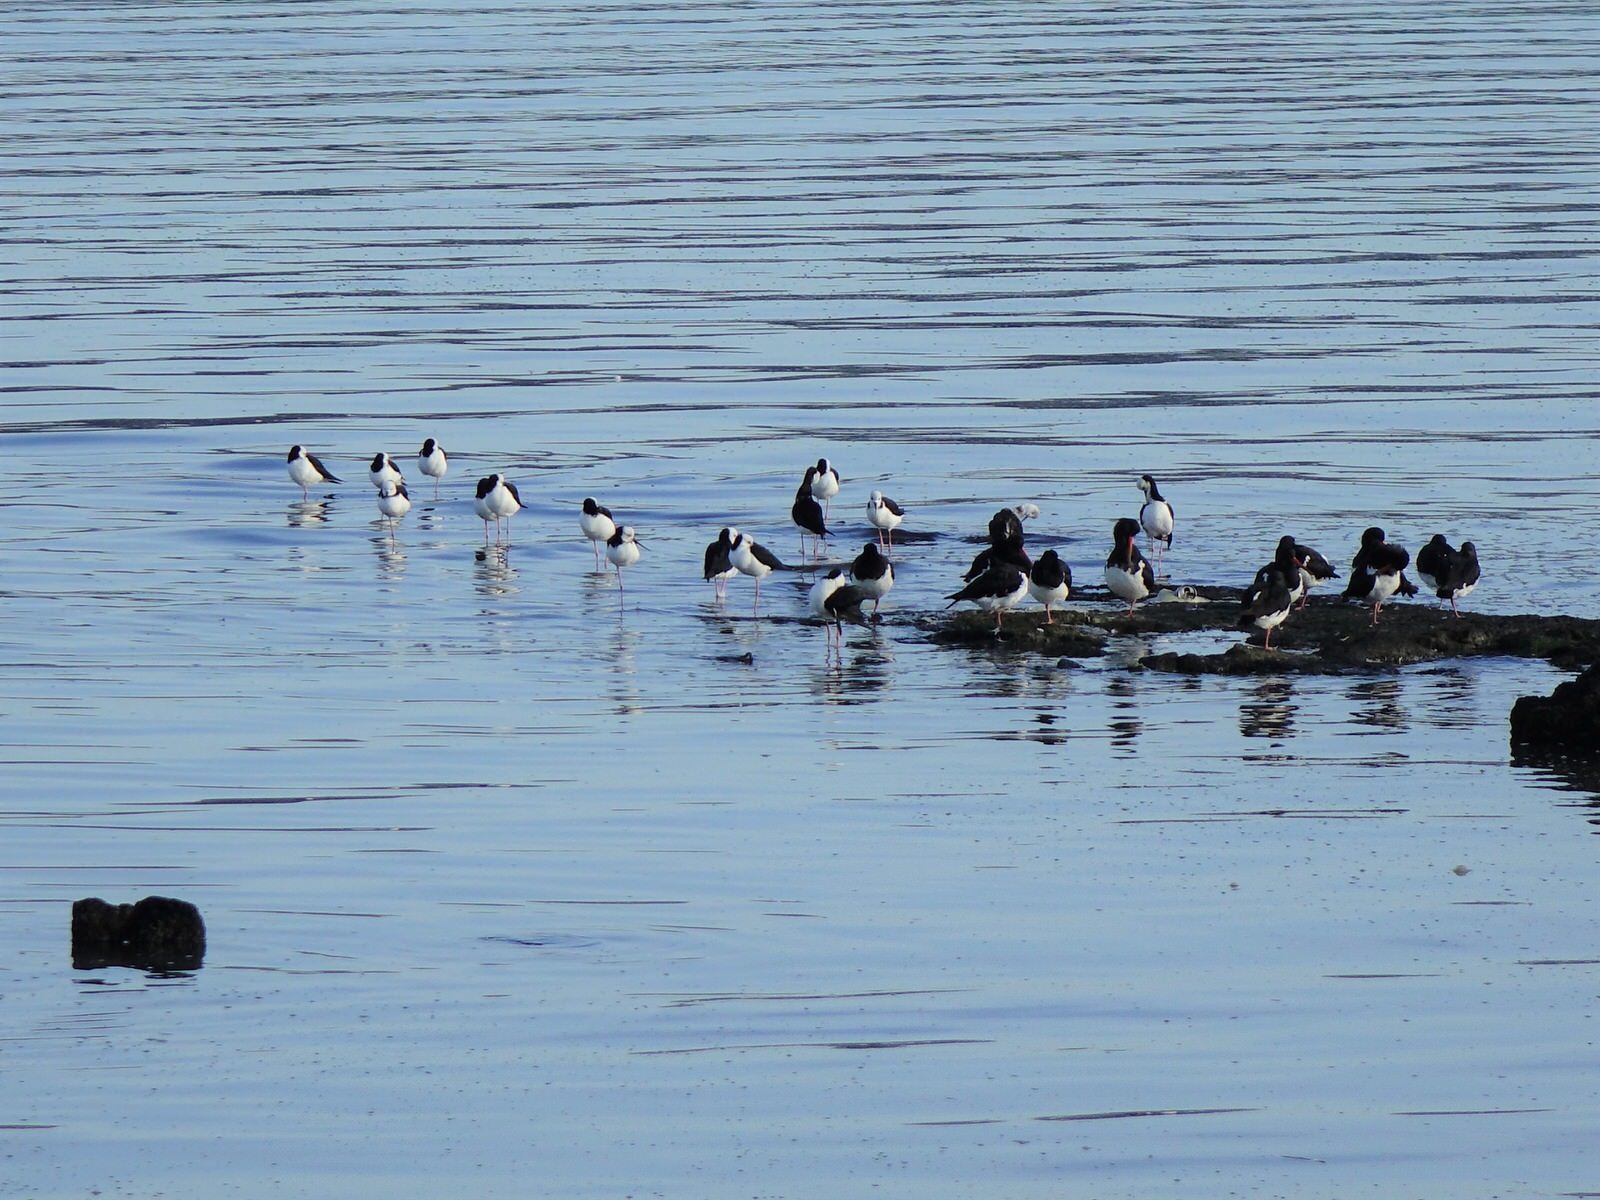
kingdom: Animalia
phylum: Chordata
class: Aves
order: Charadriiformes
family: Recurvirostridae
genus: Himantopus
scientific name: Himantopus leucocephalus
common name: White-headed stilt
